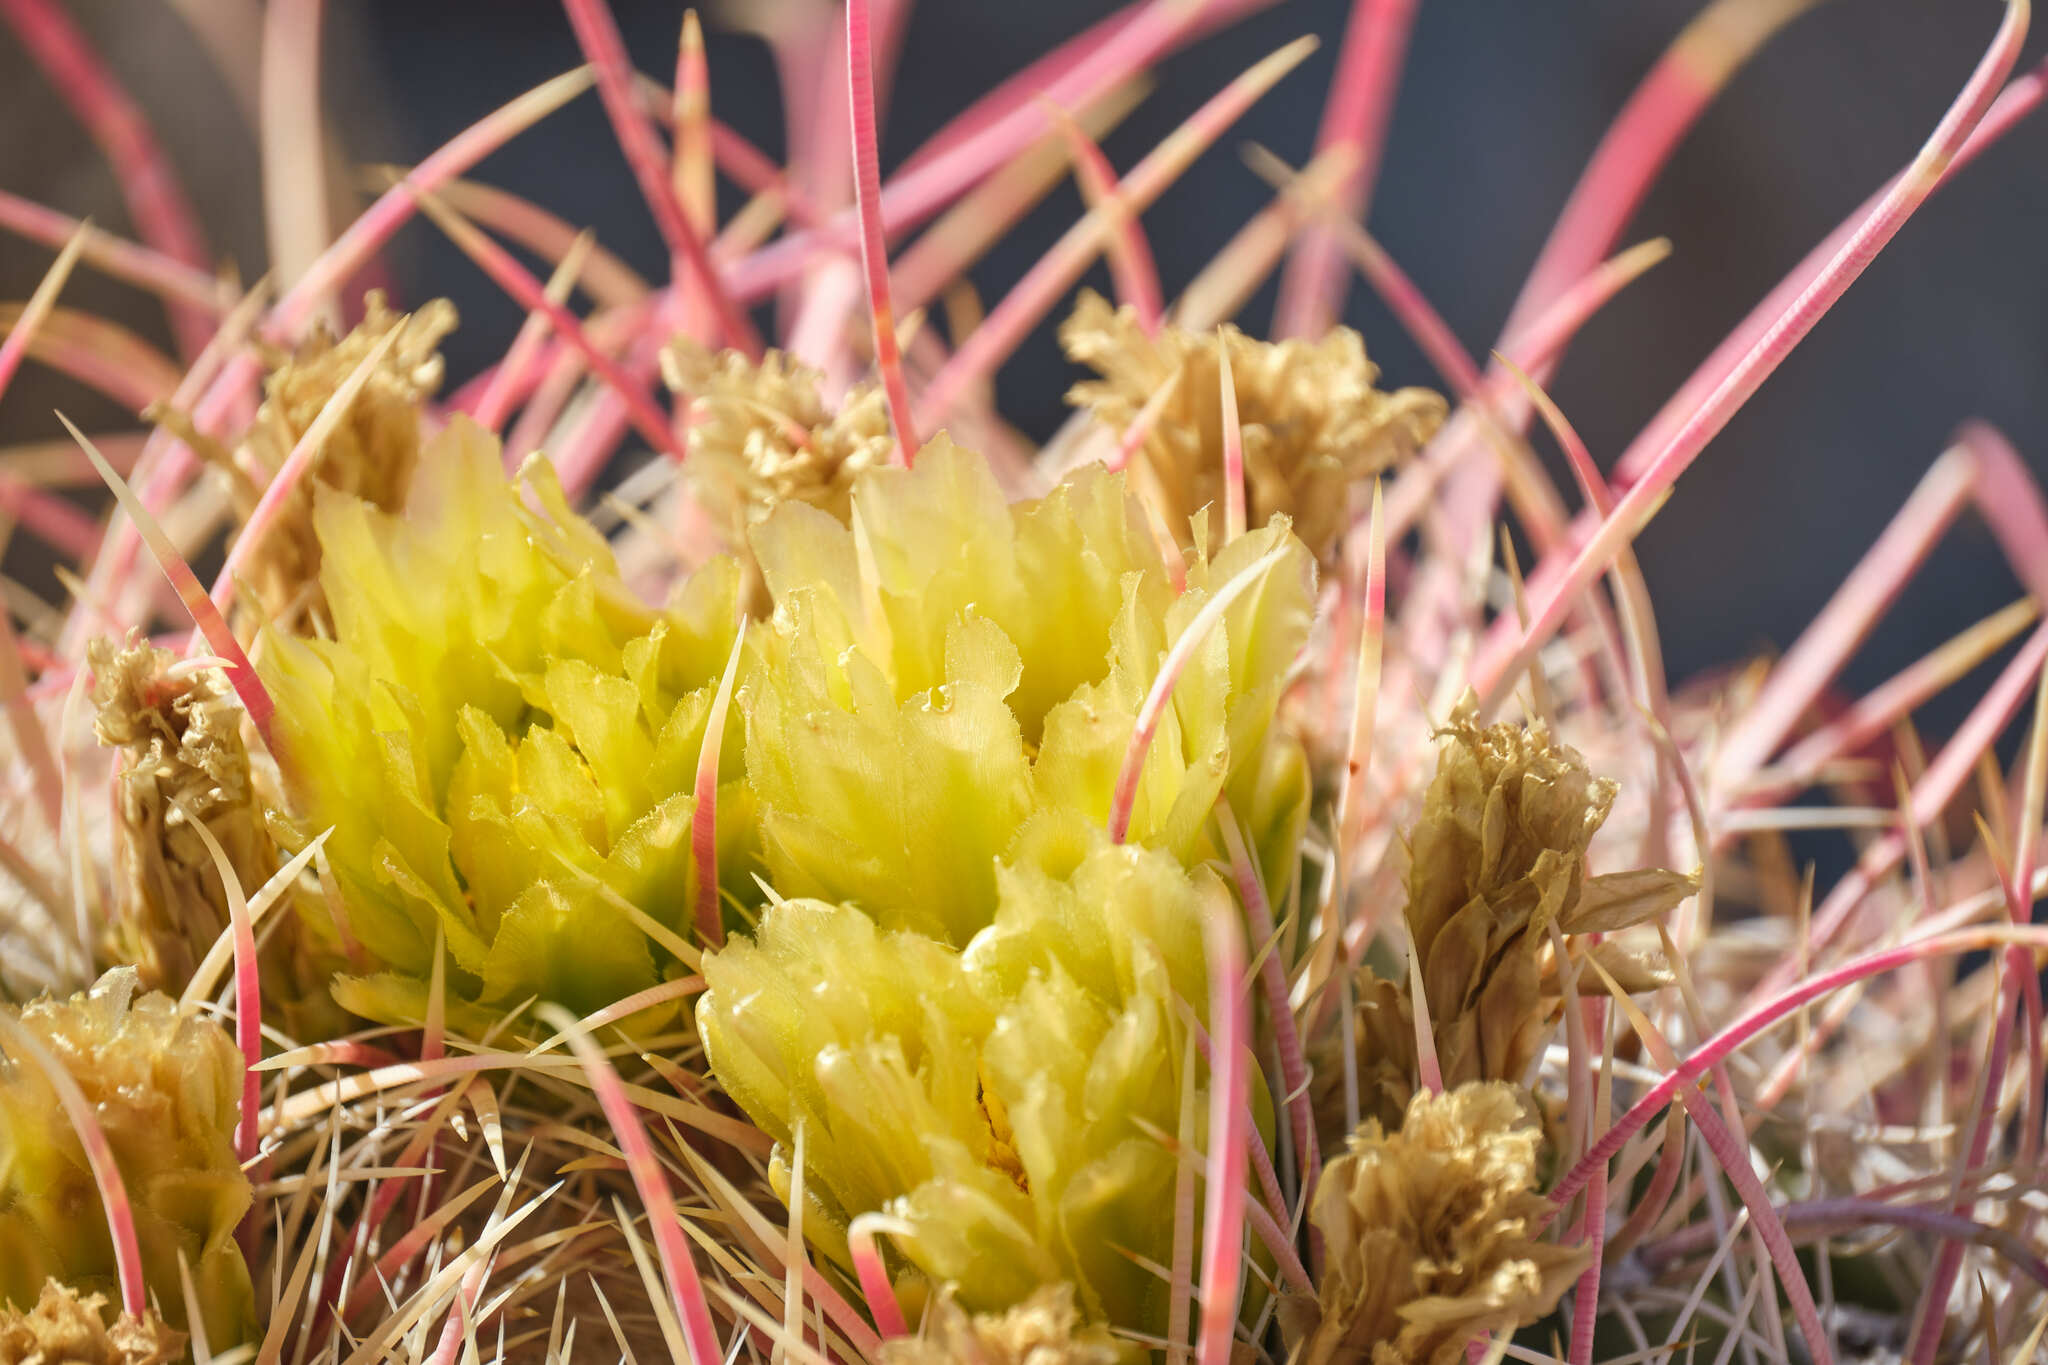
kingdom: Plantae
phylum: Tracheophyta
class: Magnoliopsida
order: Caryophyllales
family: Cactaceae
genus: Ferocactus
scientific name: Ferocactus cylindraceus
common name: California barrel cactus
